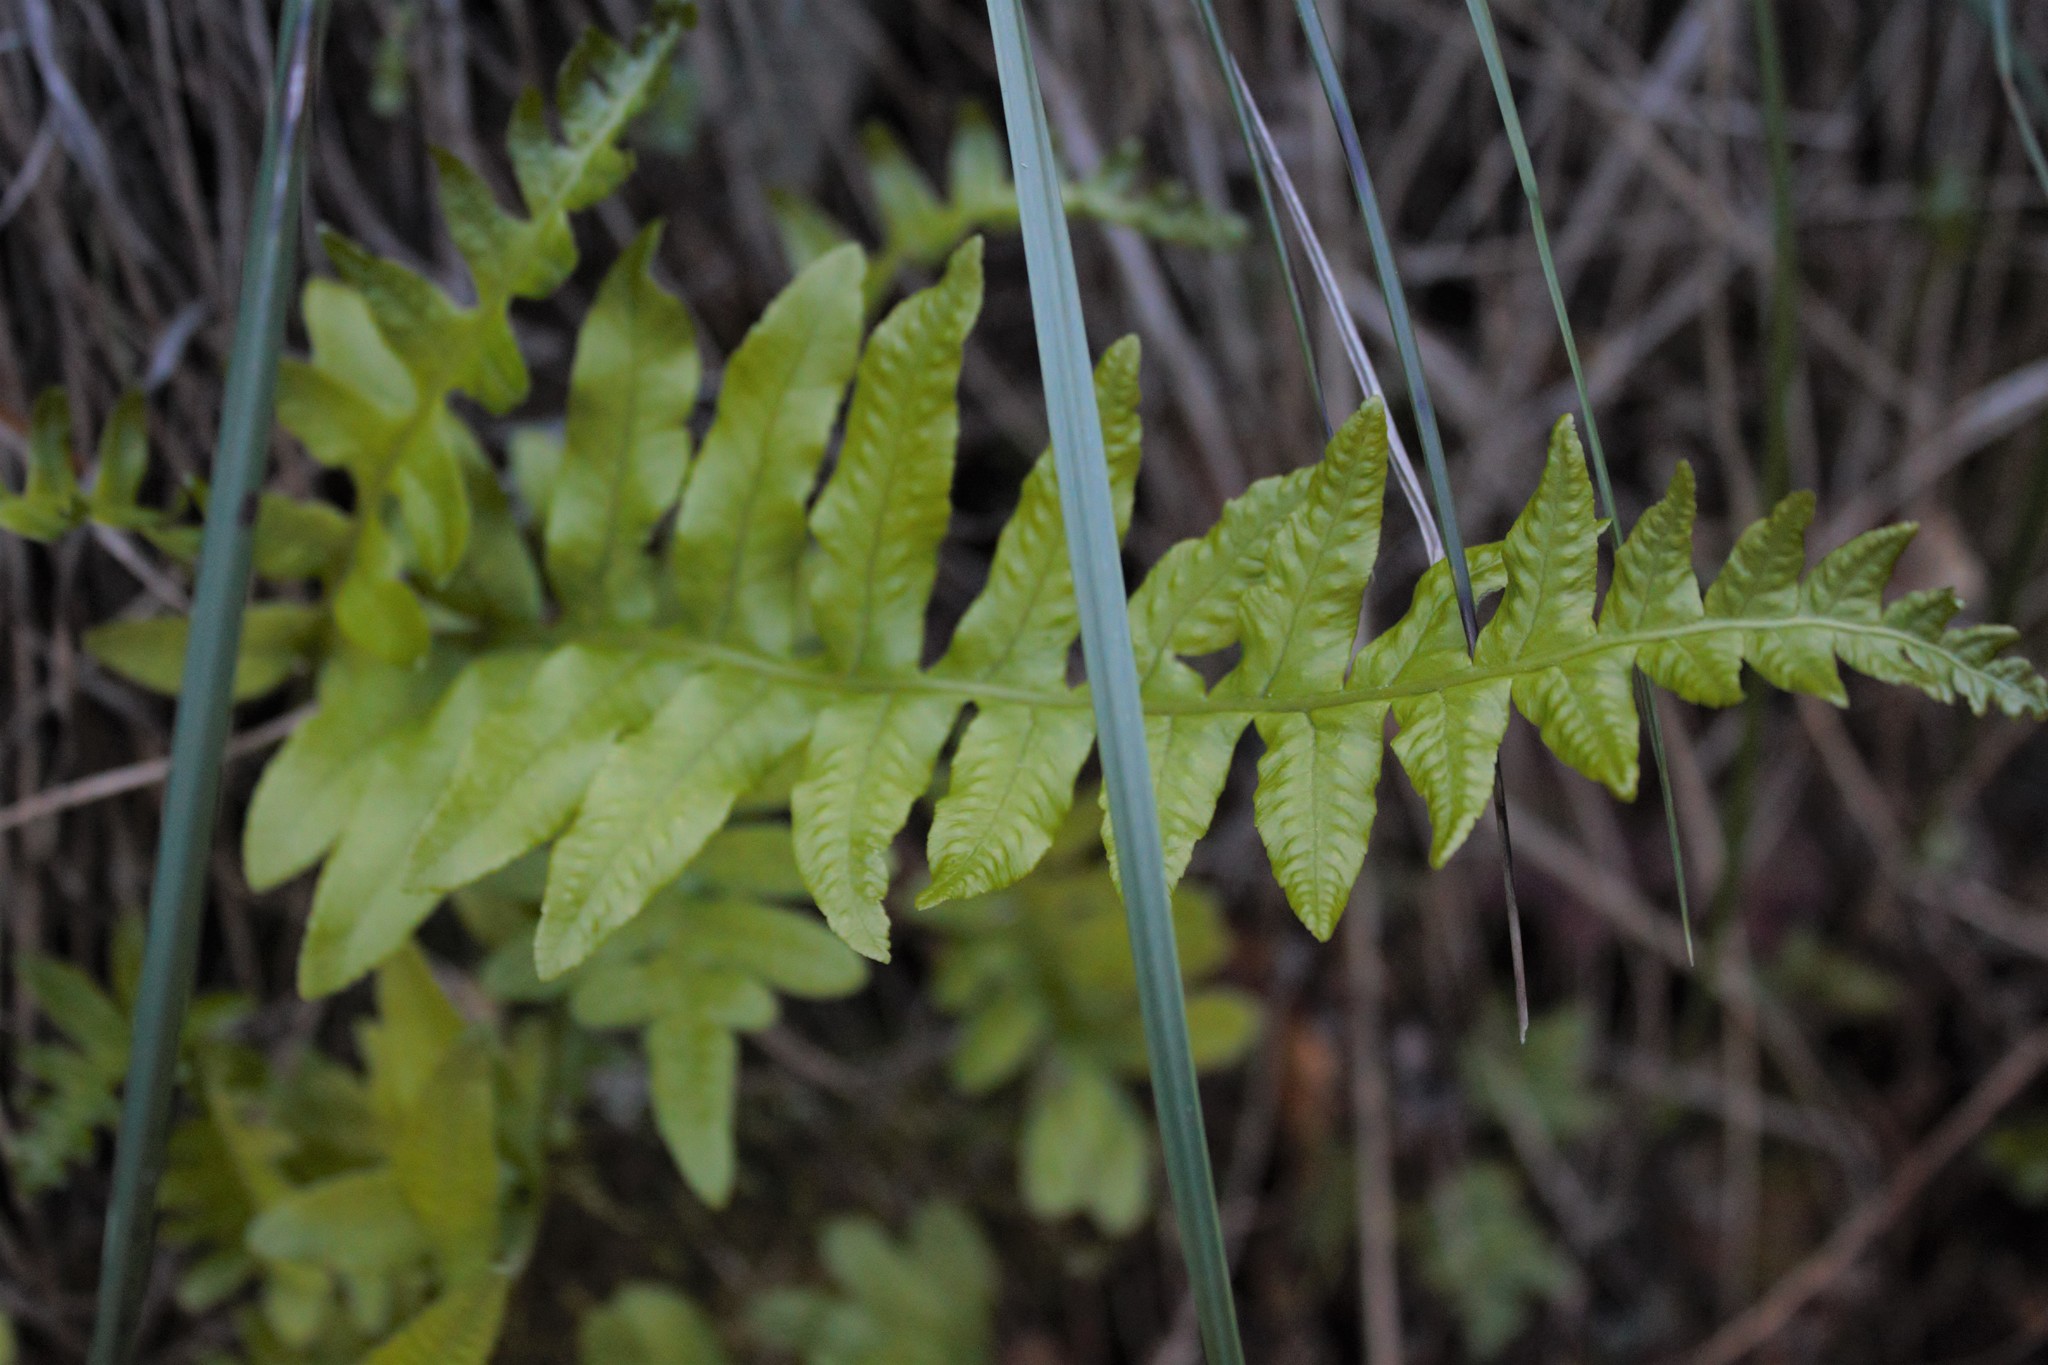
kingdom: Plantae
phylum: Tracheophyta
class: Polypodiopsida
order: Polypodiales
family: Polypodiaceae
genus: Polypodium
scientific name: Polypodium californicum
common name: California polypody
